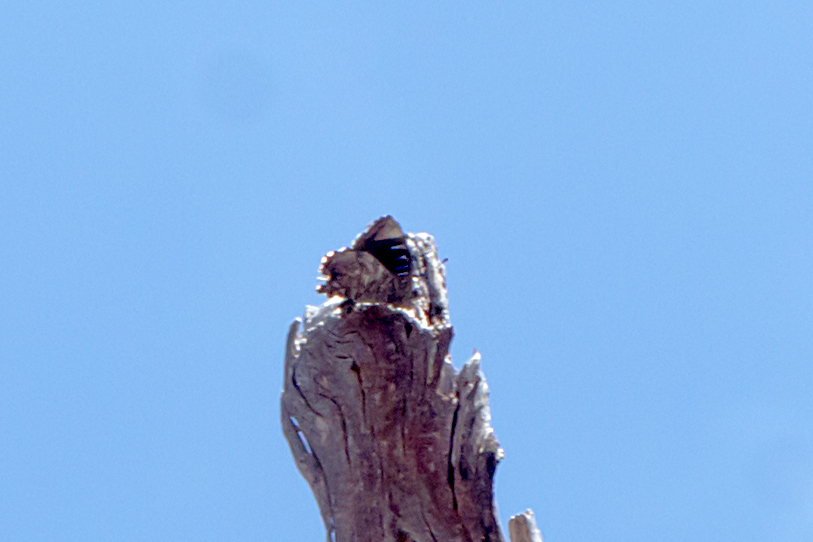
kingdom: Animalia
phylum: Arthropoda
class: Insecta
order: Lepidoptera
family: Lycaenidae
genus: Ogyris
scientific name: Ogyris olane
